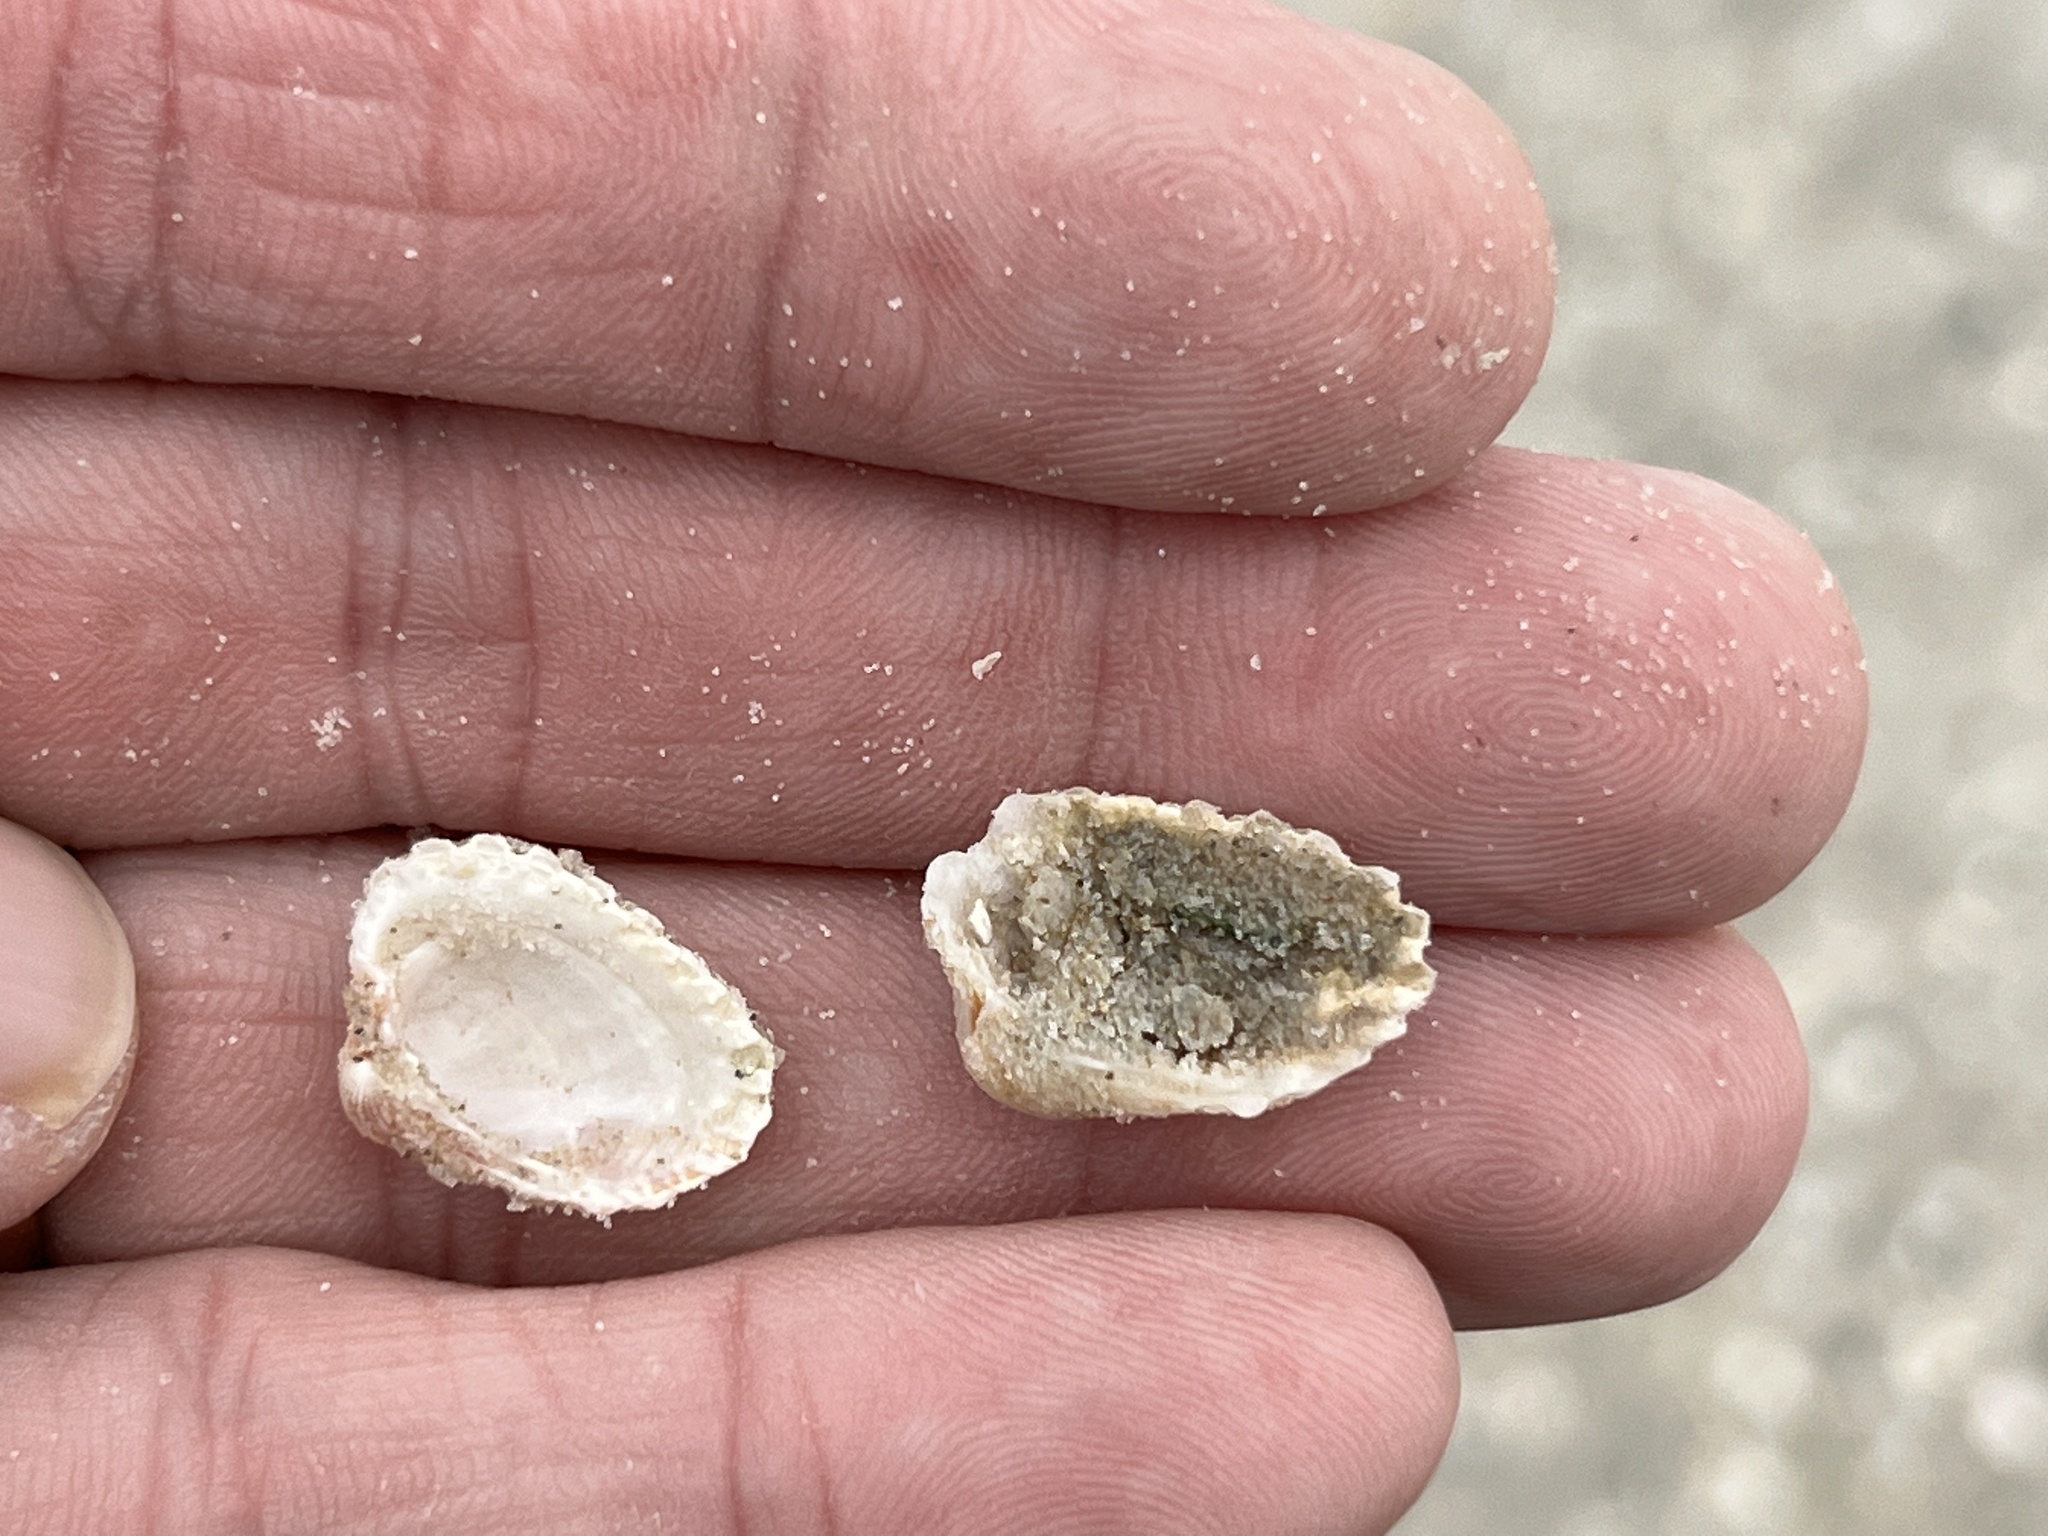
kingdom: Animalia
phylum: Mollusca
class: Bivalvia
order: Carditida
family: Carditidae
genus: Cardites
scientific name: Cardites floridanus
